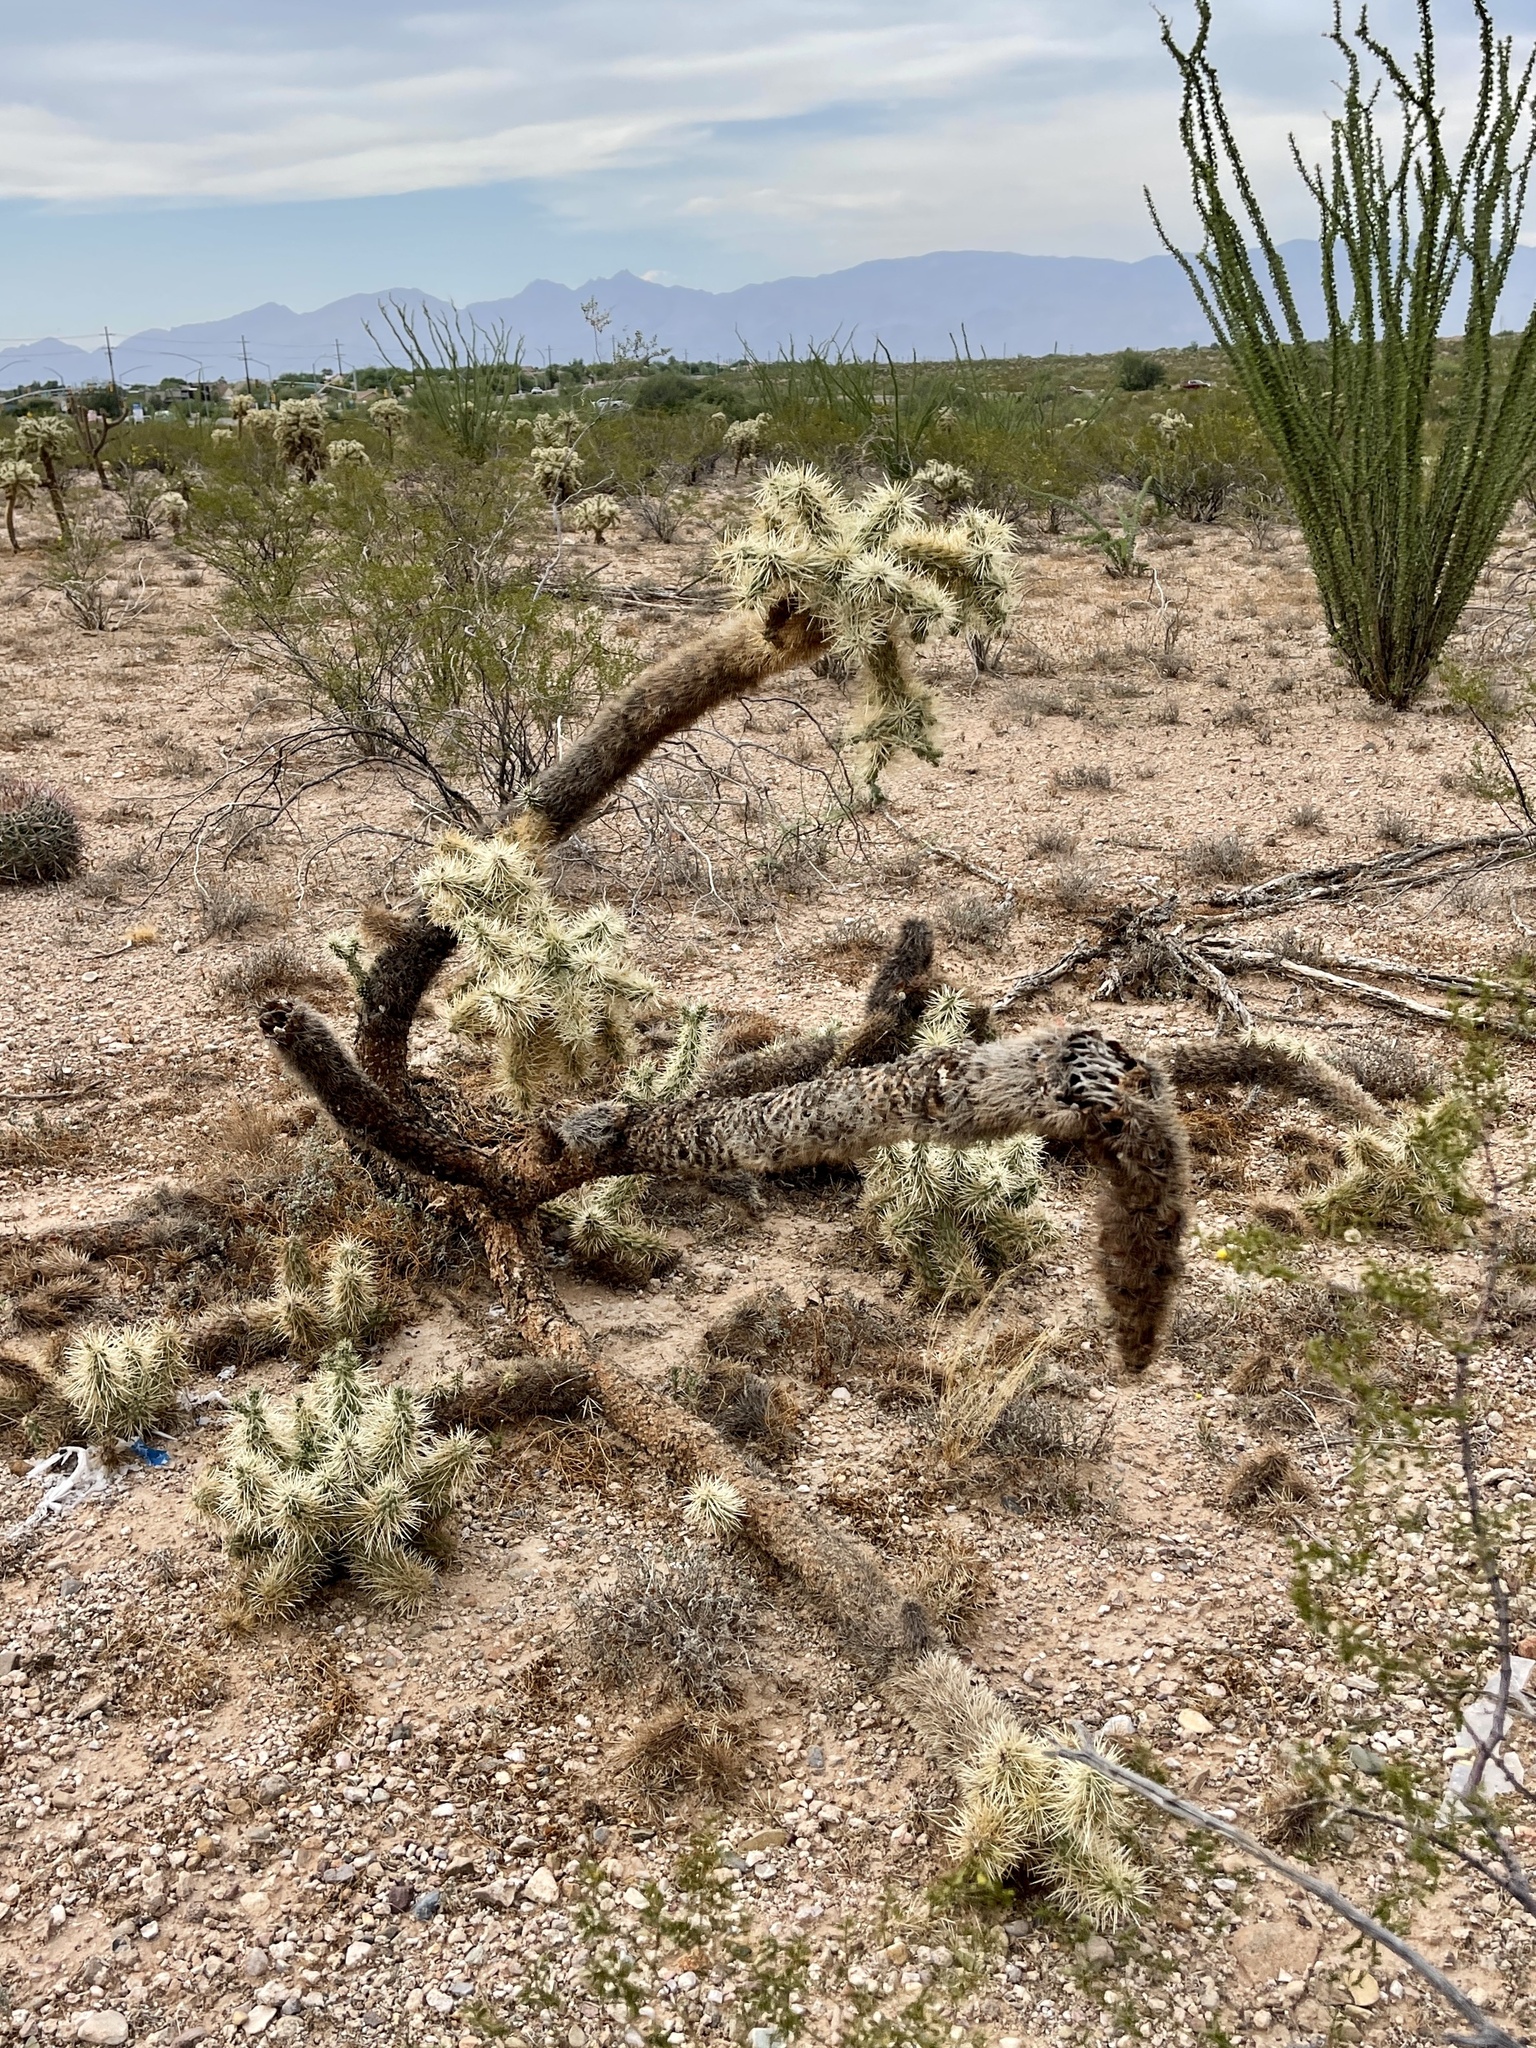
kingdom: Plantae
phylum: Tracheophyta
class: Magnoliopsida
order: Caryophyllales
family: Cactaceae
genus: Cylindropuntia
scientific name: Cylindropuntia fulgida
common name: Jumping cholla
